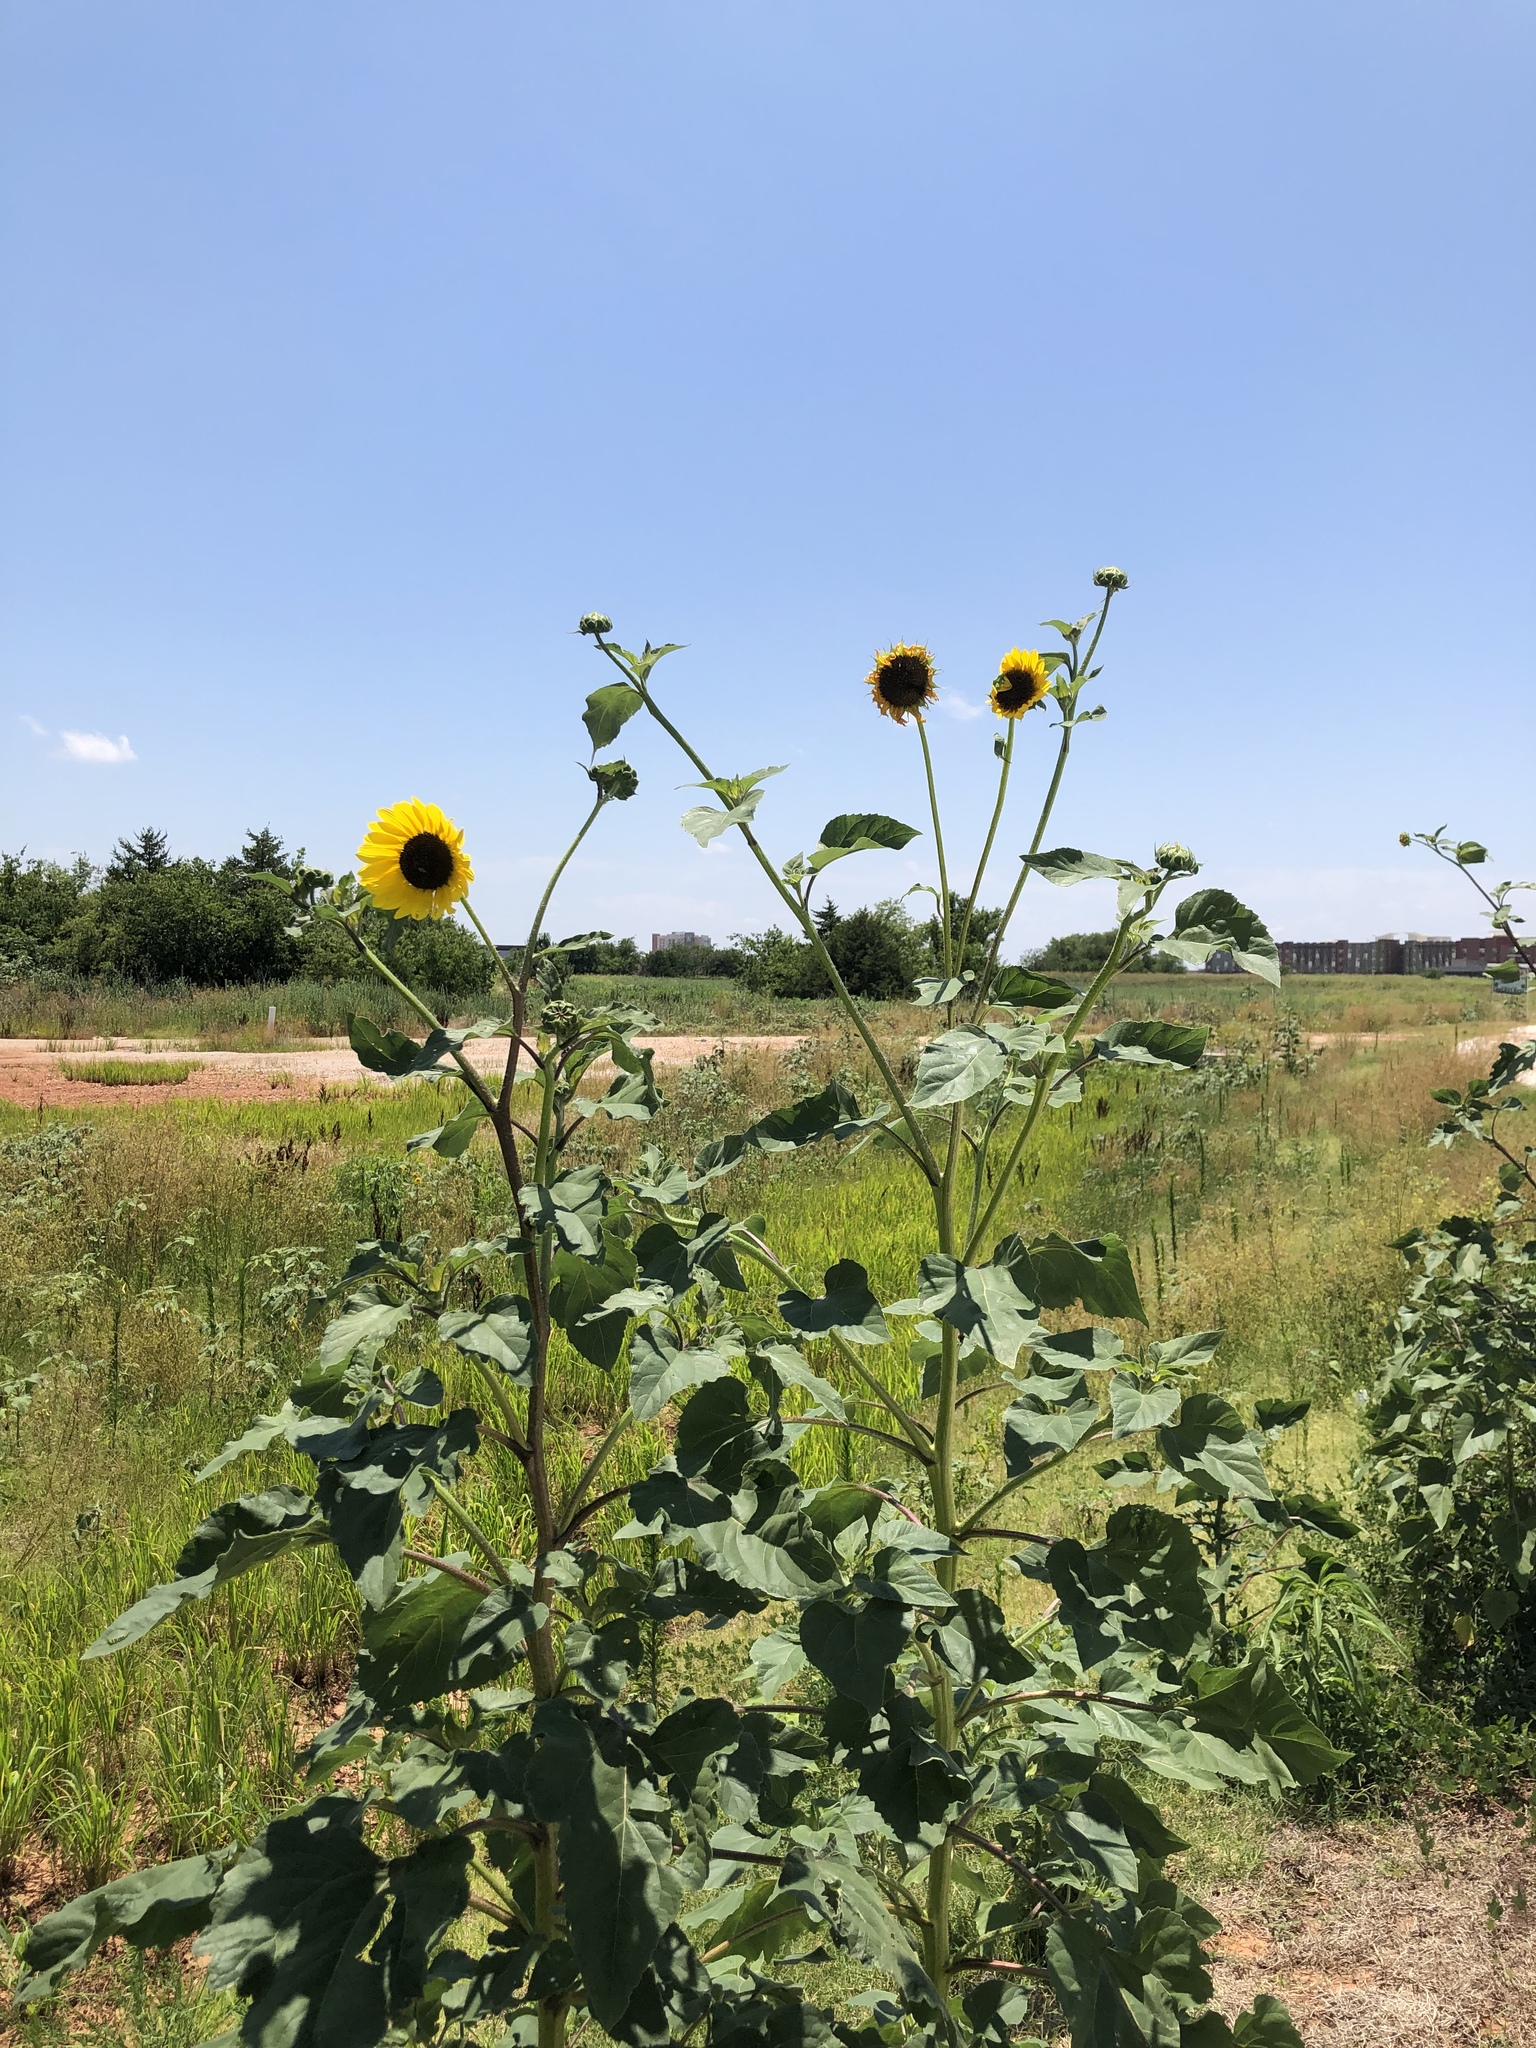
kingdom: Plantae
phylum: Tracheophyta
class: Magnoliopsida
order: Asterales
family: Asteraceae
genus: Helianthus
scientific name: Helianthus annuus
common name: Sunflower
